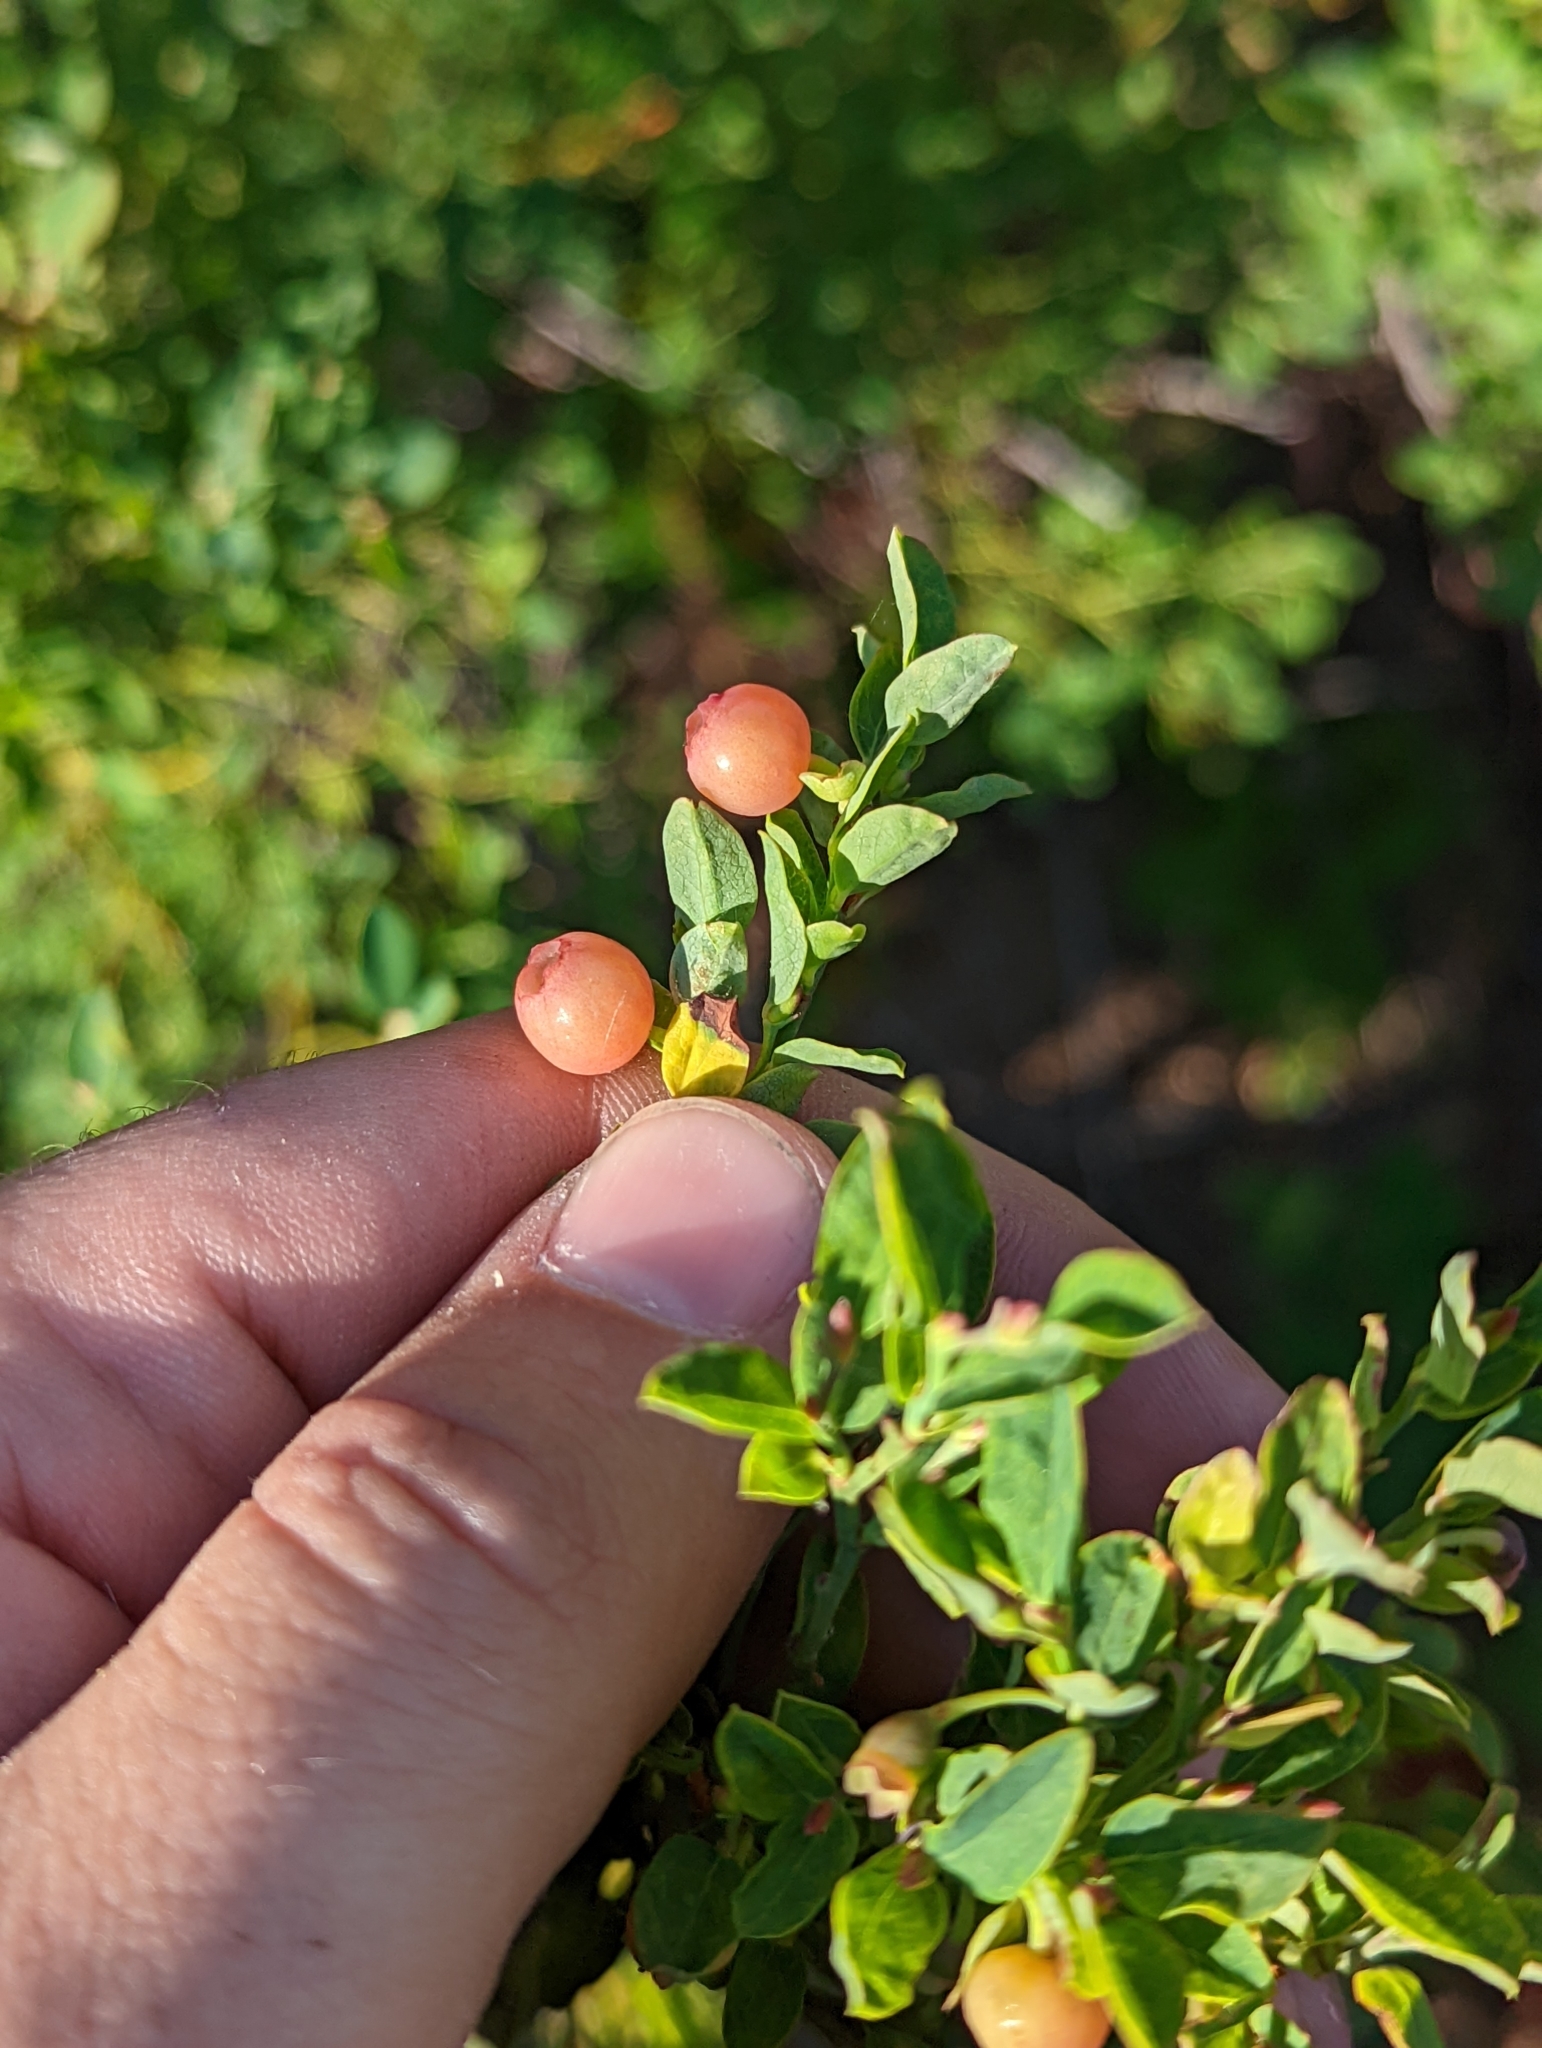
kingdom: Plantae
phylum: Tracheophyta
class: Magnoliopsida
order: Ericales
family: Ericaceae
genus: Vaccinium
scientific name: Vaccinium scoparium
